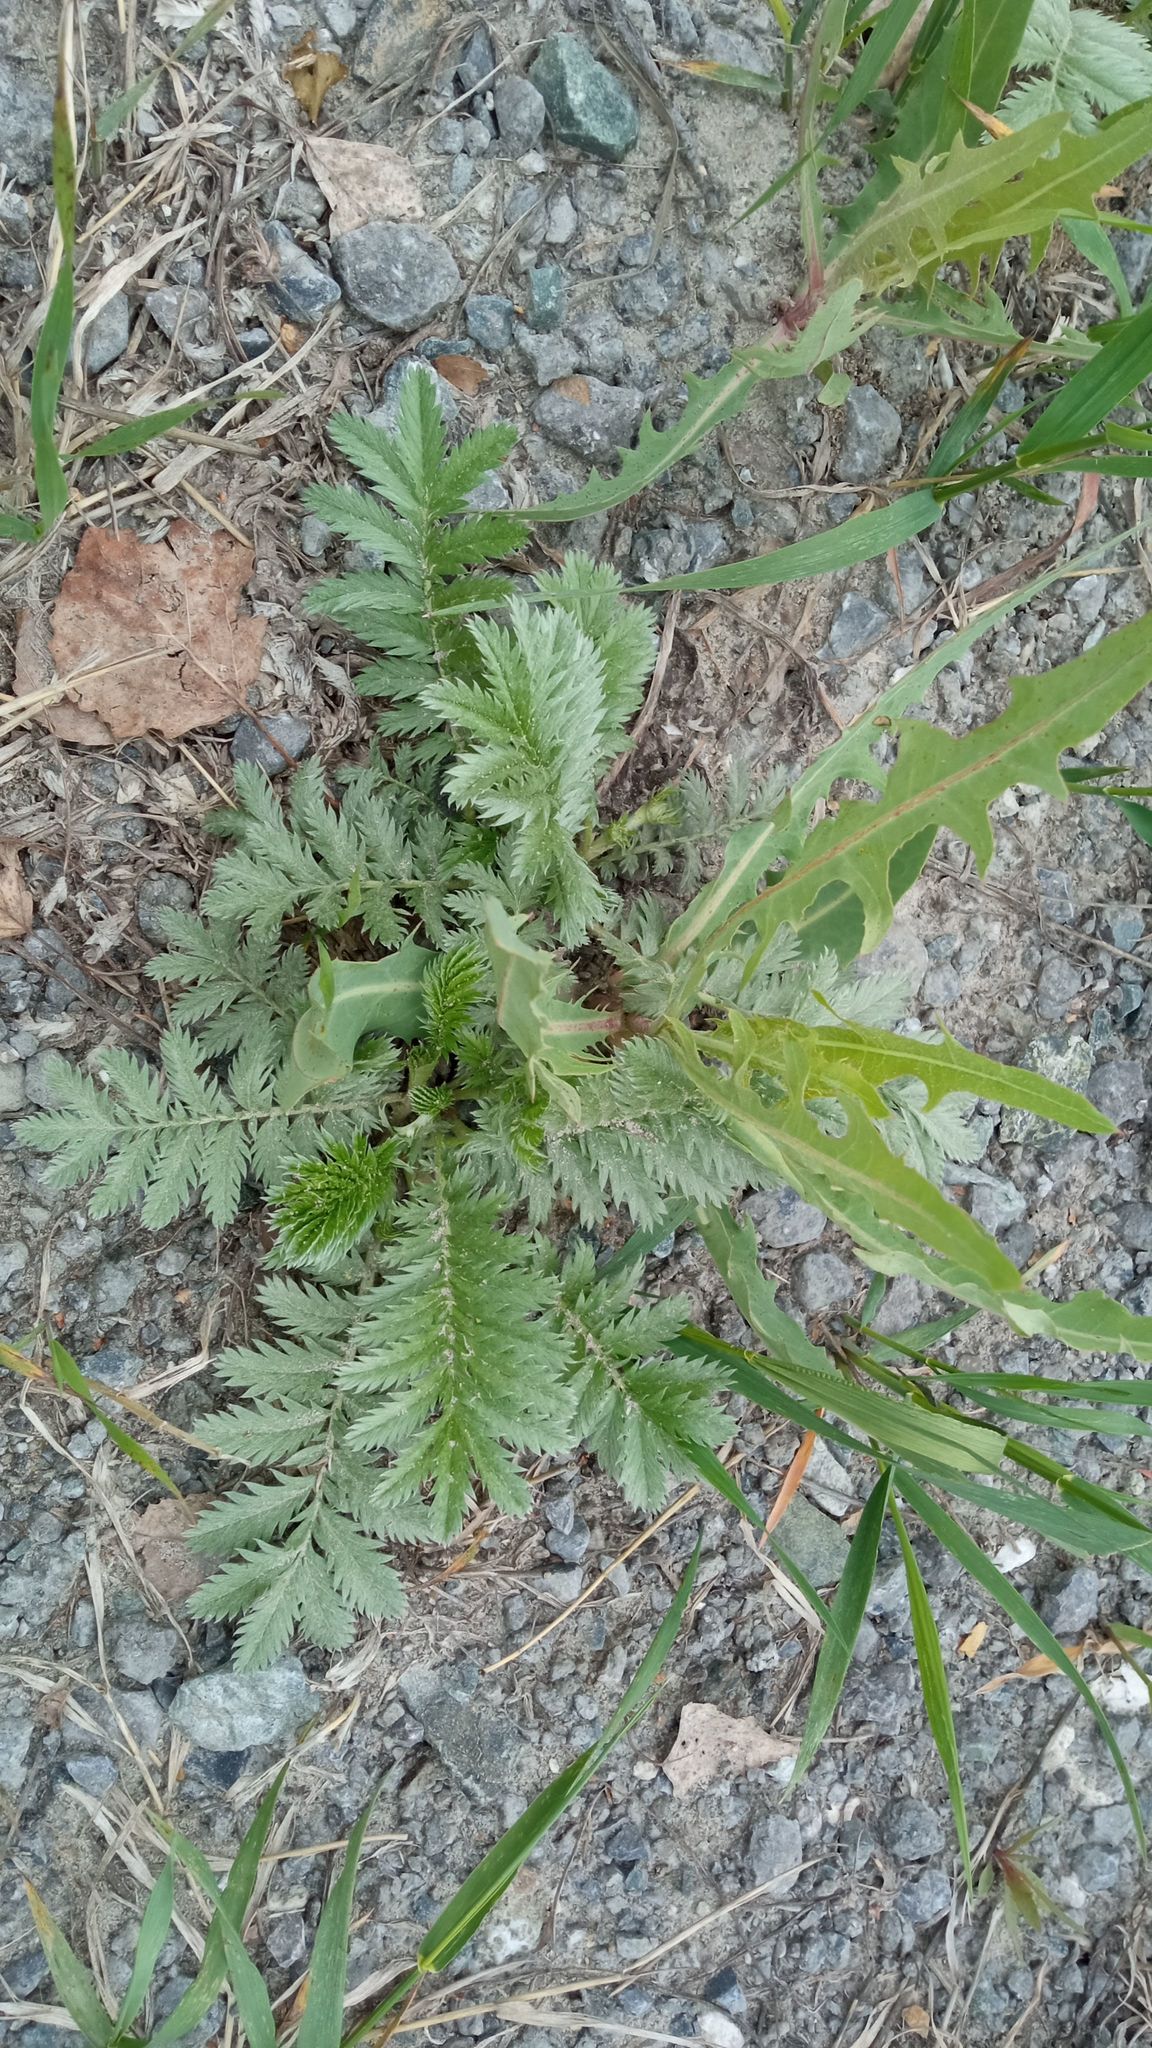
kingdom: Plantae
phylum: Tracheophyta
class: Magnoliopsida
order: Rosales
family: Rosaceae
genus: Argentina
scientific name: Argentina anserina
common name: Common silverweed
